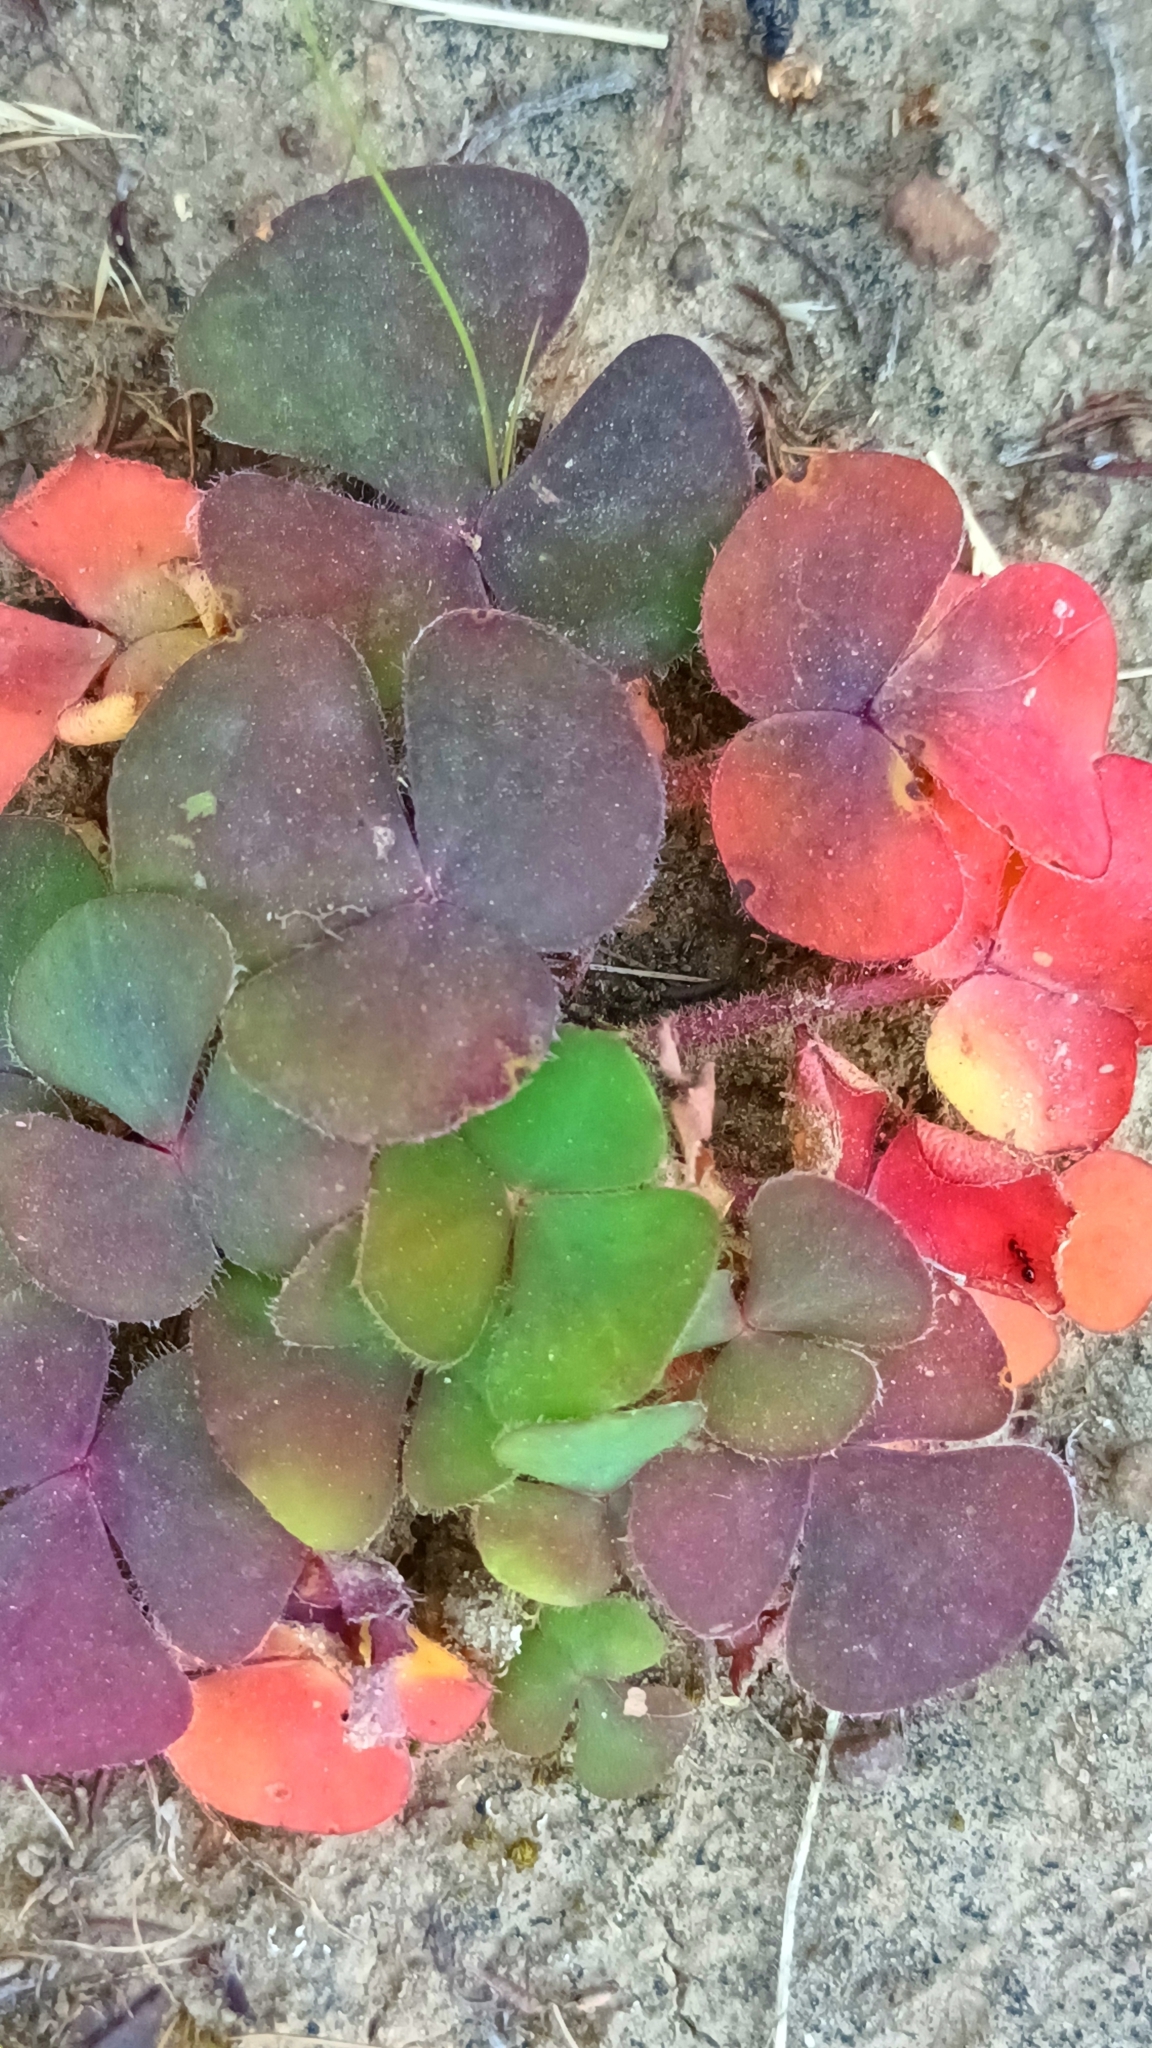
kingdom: Plantae
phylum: Tracheophyta
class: Magnoliopsida
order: Oxalidales
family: Oxalidaceae
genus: Oxalis
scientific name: Oxalis purpurea
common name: Purple woodsorrel
